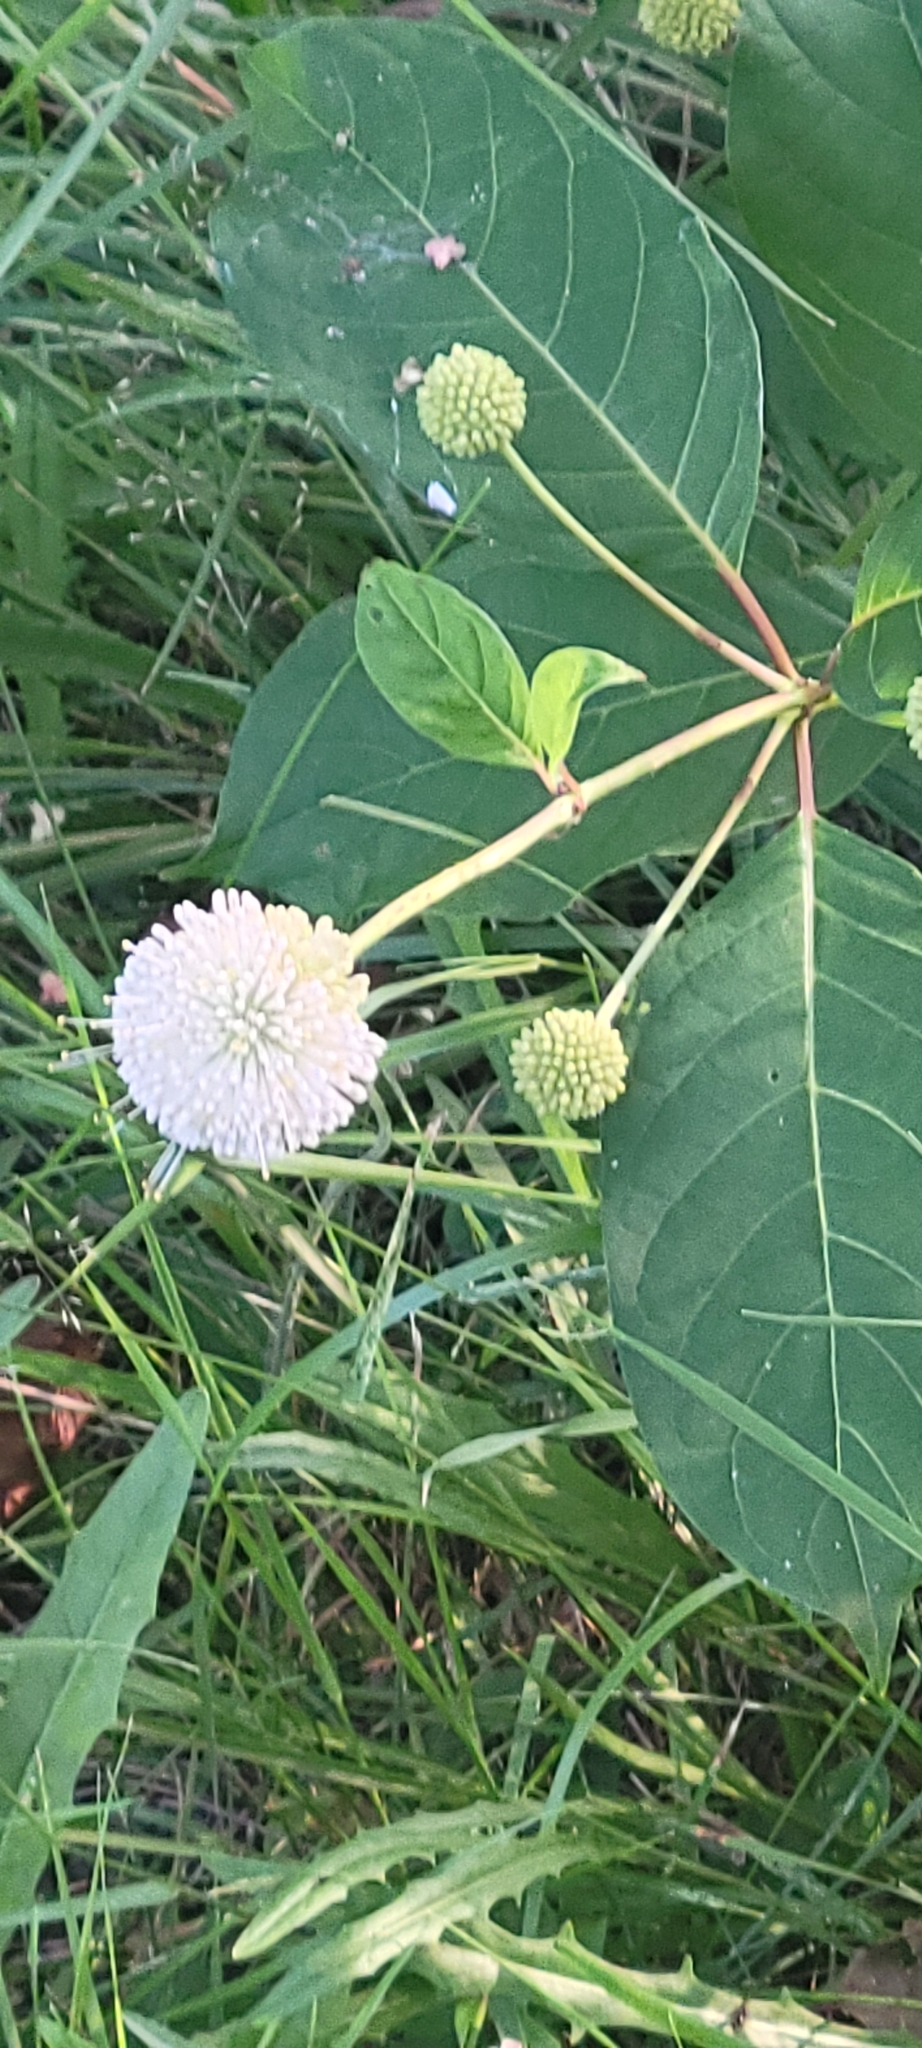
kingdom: Plantae
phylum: Tracheophyta
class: Magnoliopsida
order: Gentianales
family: Rubiaceae
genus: Cephalanthus
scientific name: Cephalanthus occidentalis
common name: Button-willow
